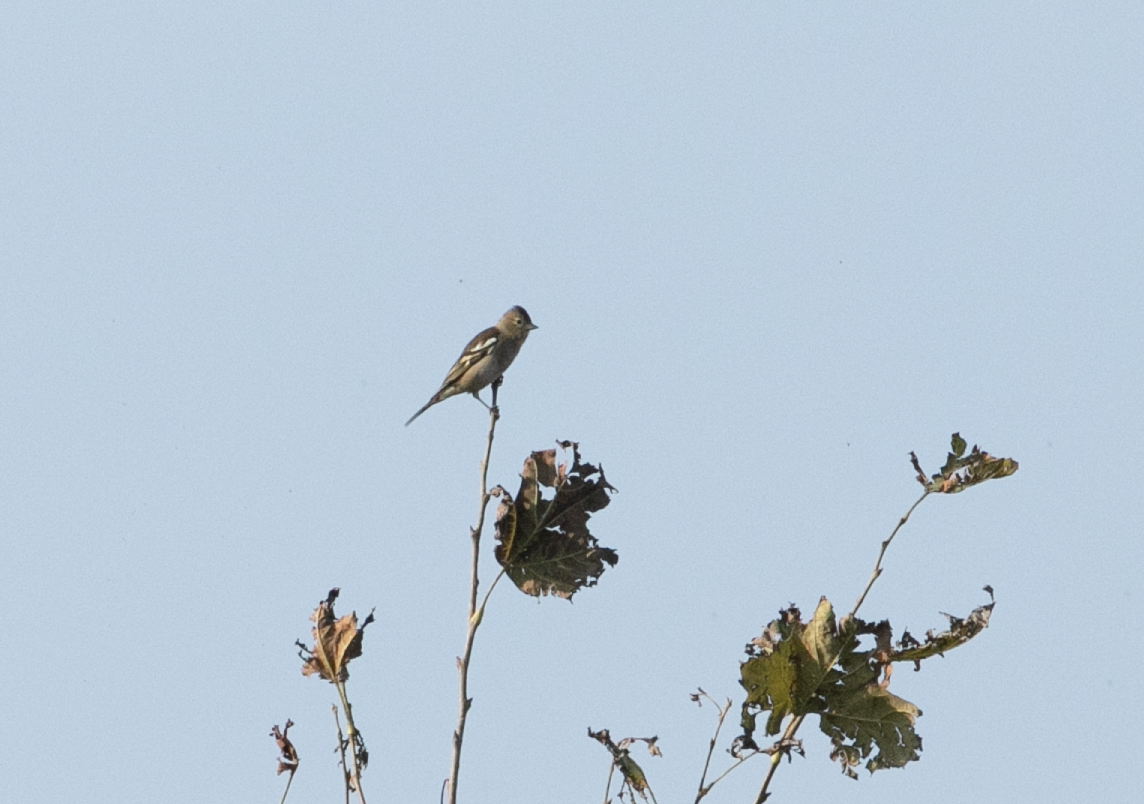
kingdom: Animalia
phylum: Chordata
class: Aves
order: Passeriformes
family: Fringillidae
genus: Fringilla
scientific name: Fringilla coelebs
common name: Common chaffinch
